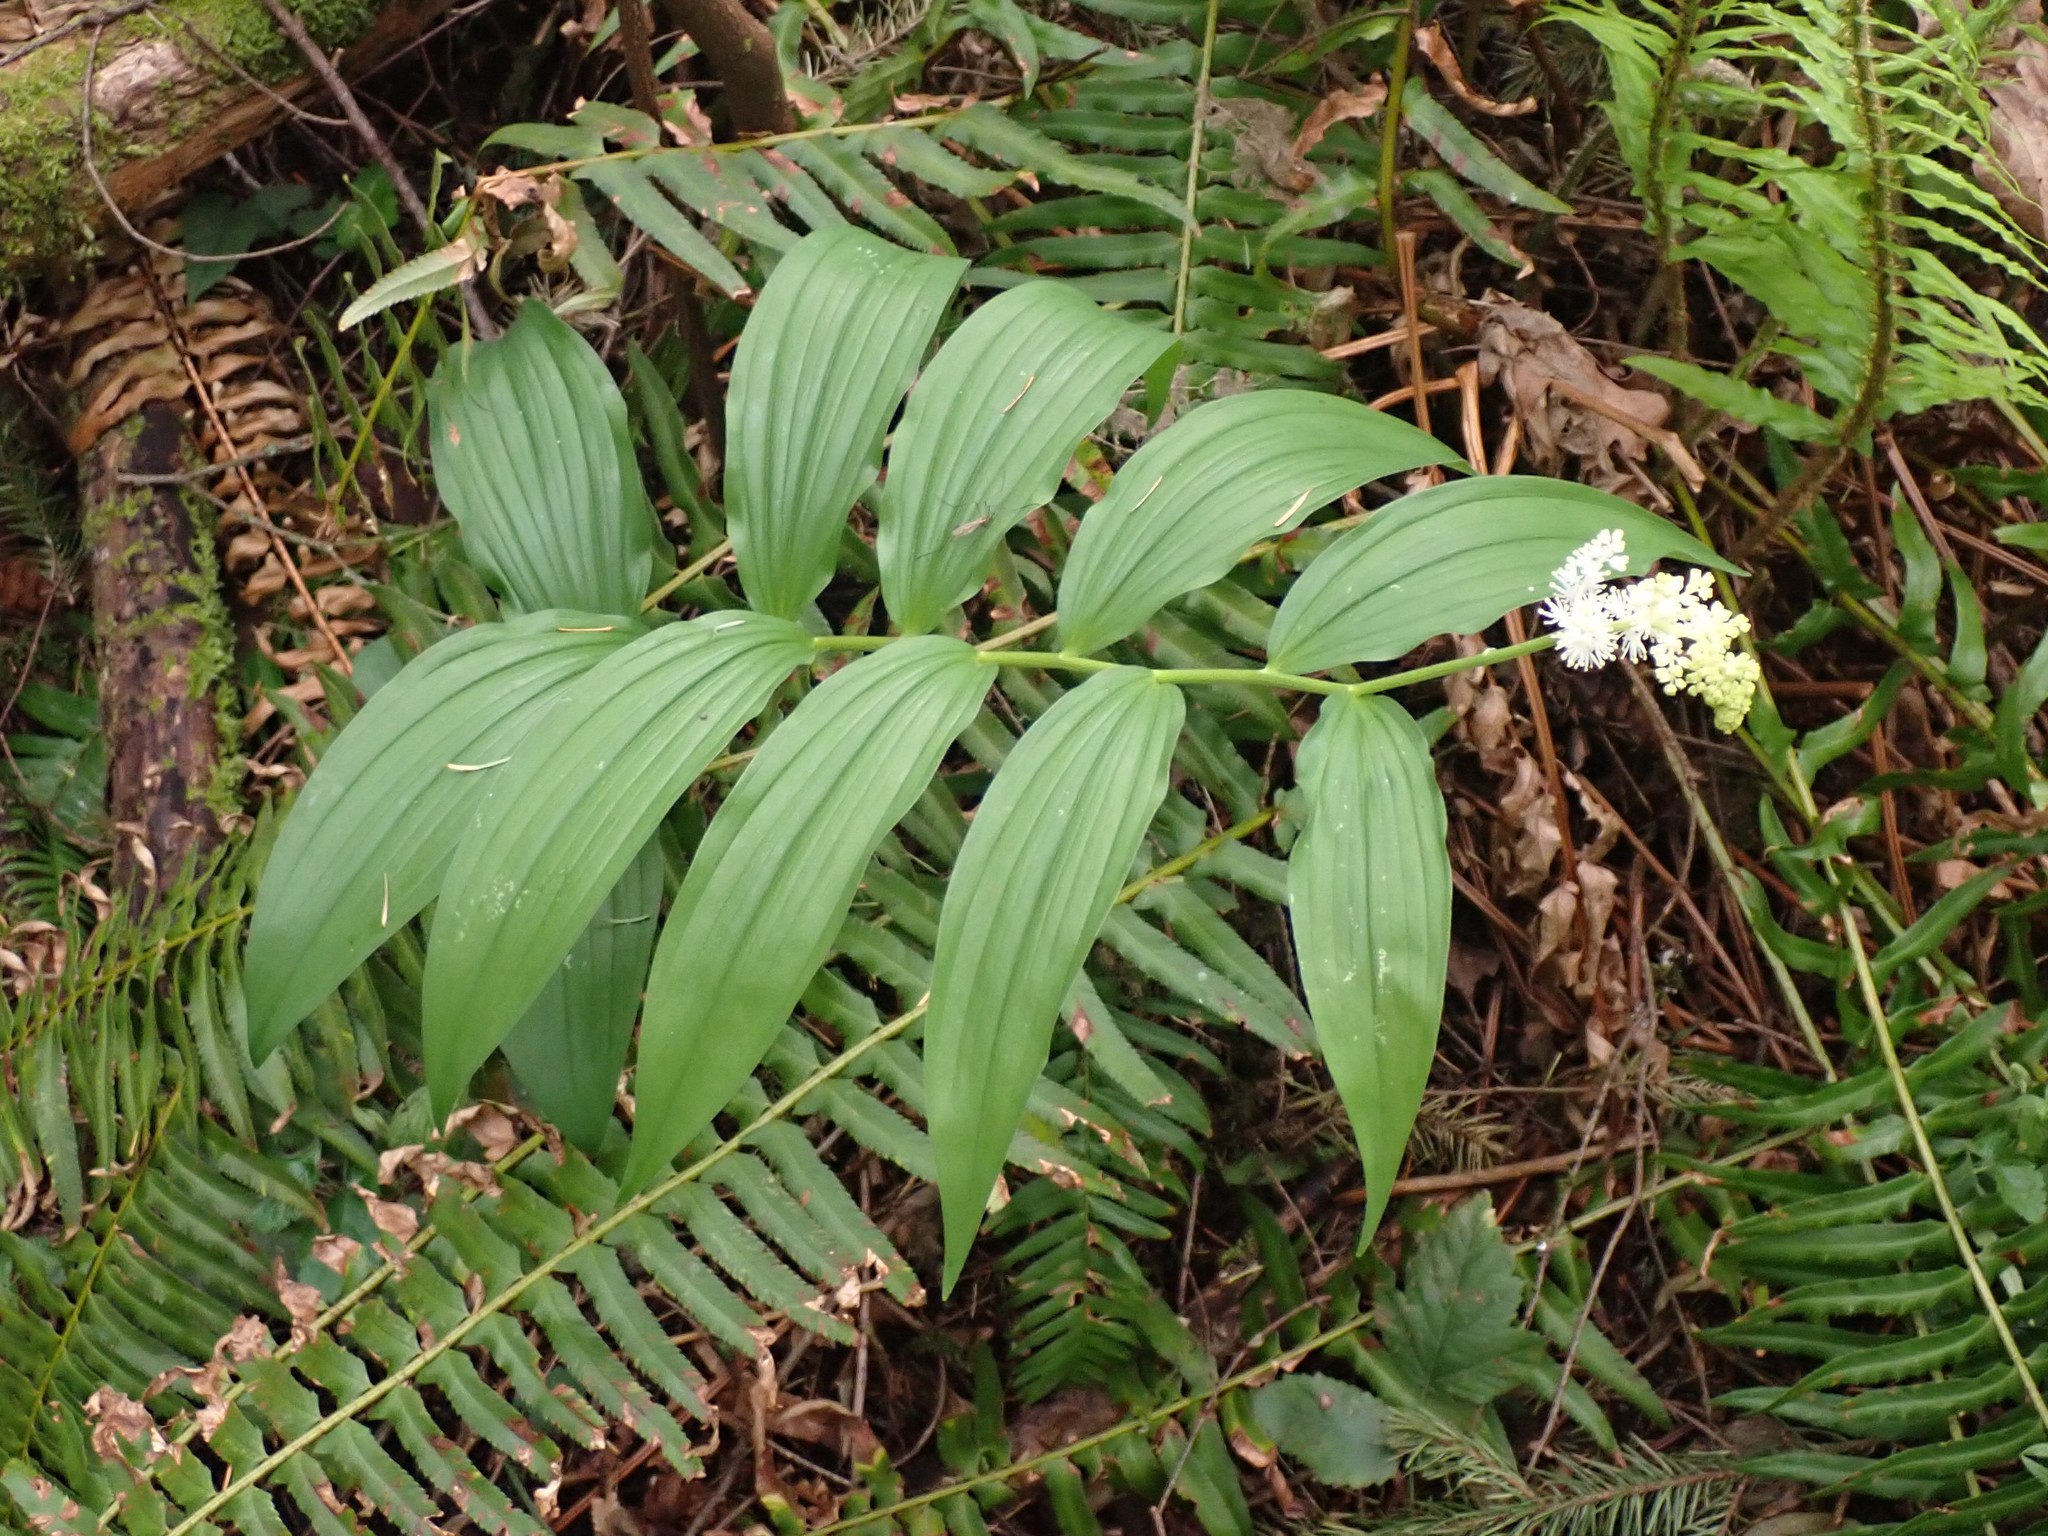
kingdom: Plantae
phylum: Tracheophyta
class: Liliopsida
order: Asparagales
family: Asparagaceae
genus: Maianthemum
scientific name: Maianthemum racemosum
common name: False spikenard
